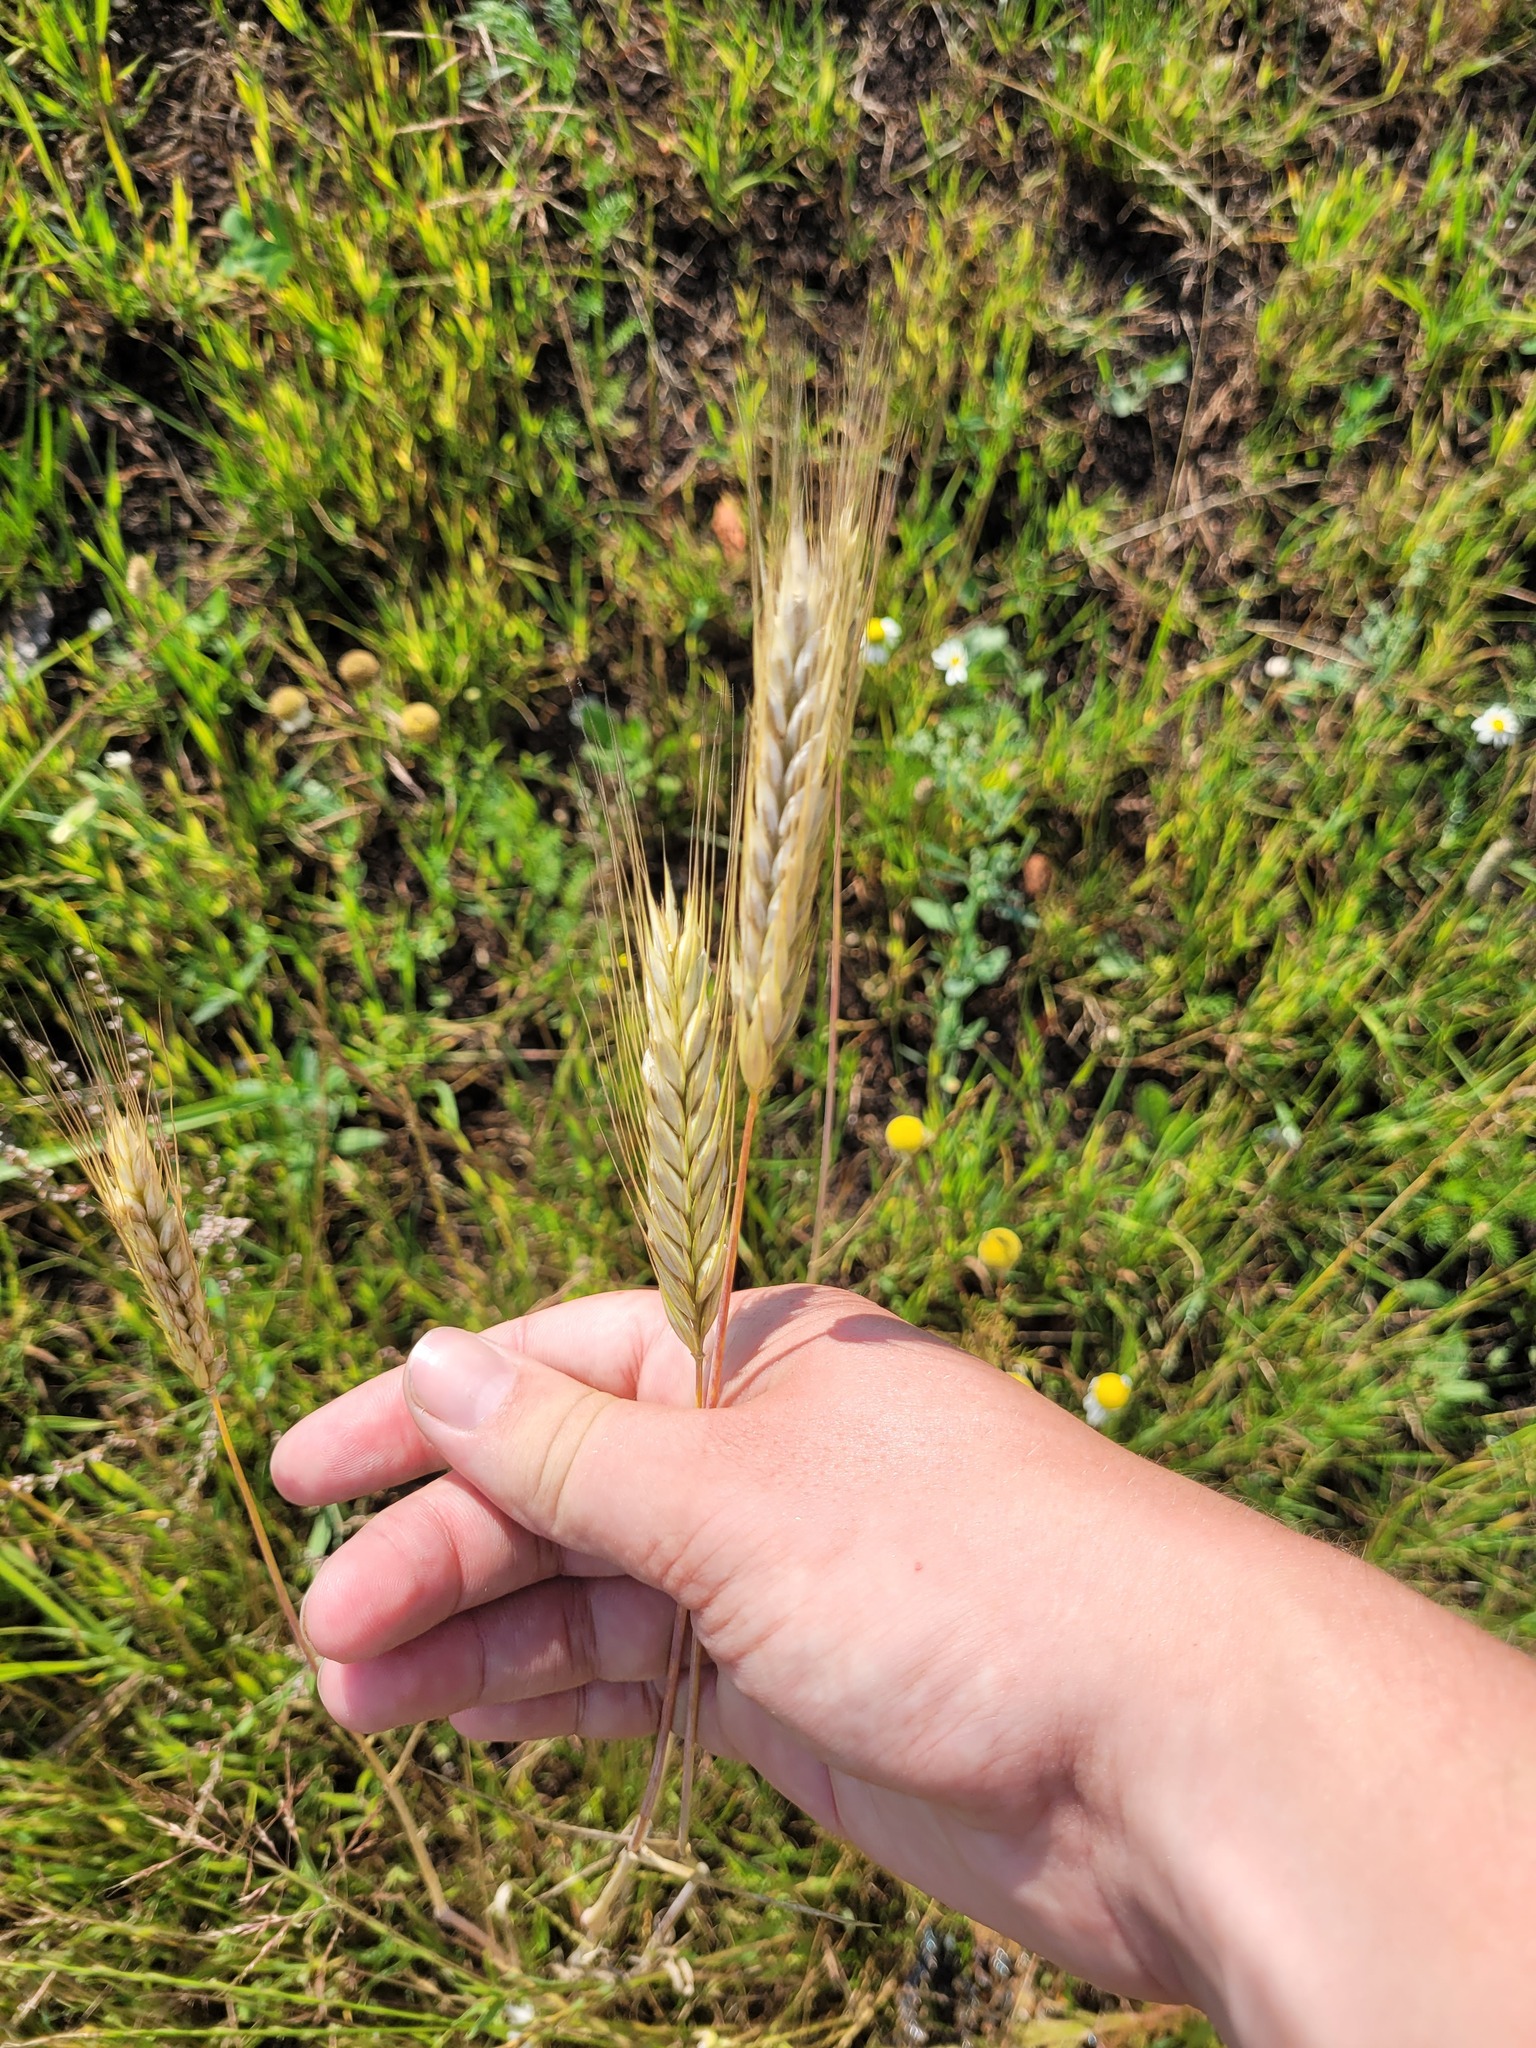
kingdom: Plantae
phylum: Tracheophyta
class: Liliopsida
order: Poales
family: Poaceae
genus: Hordeum
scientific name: Hordeum vulgare
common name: Common barley
